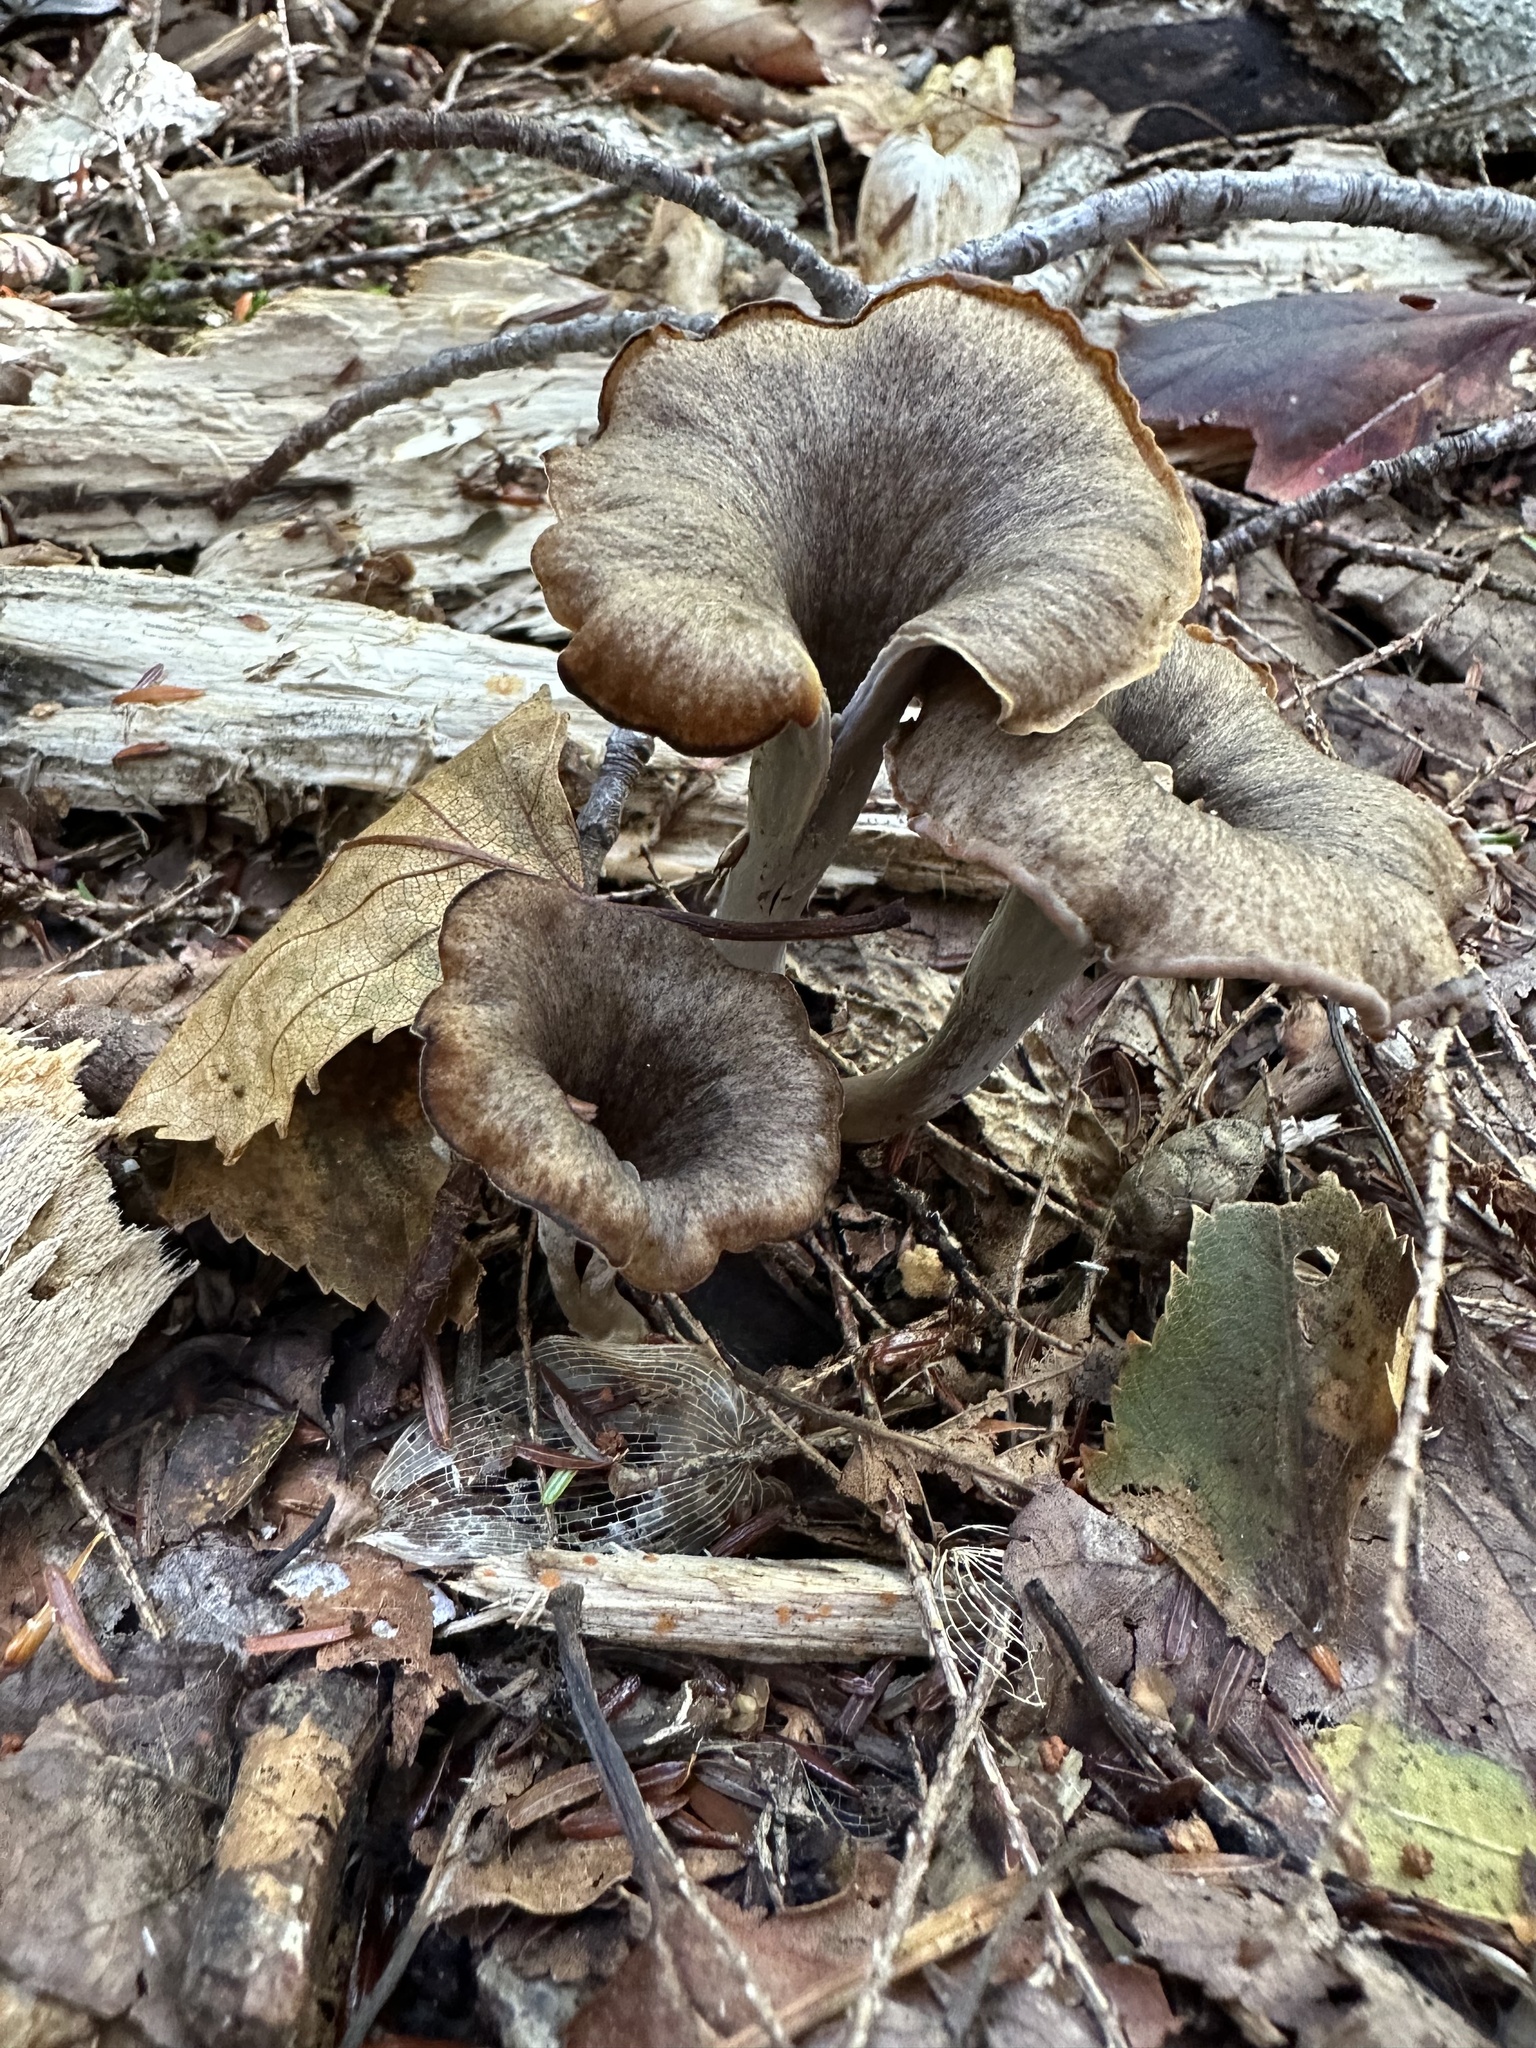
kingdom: Fungi
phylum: Basidiomycota
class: Agaricomycetes
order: Cantharellales
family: Hydnaceae
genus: Craterellus
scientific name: Craterellus cornucopioides
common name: Horn of plenty
